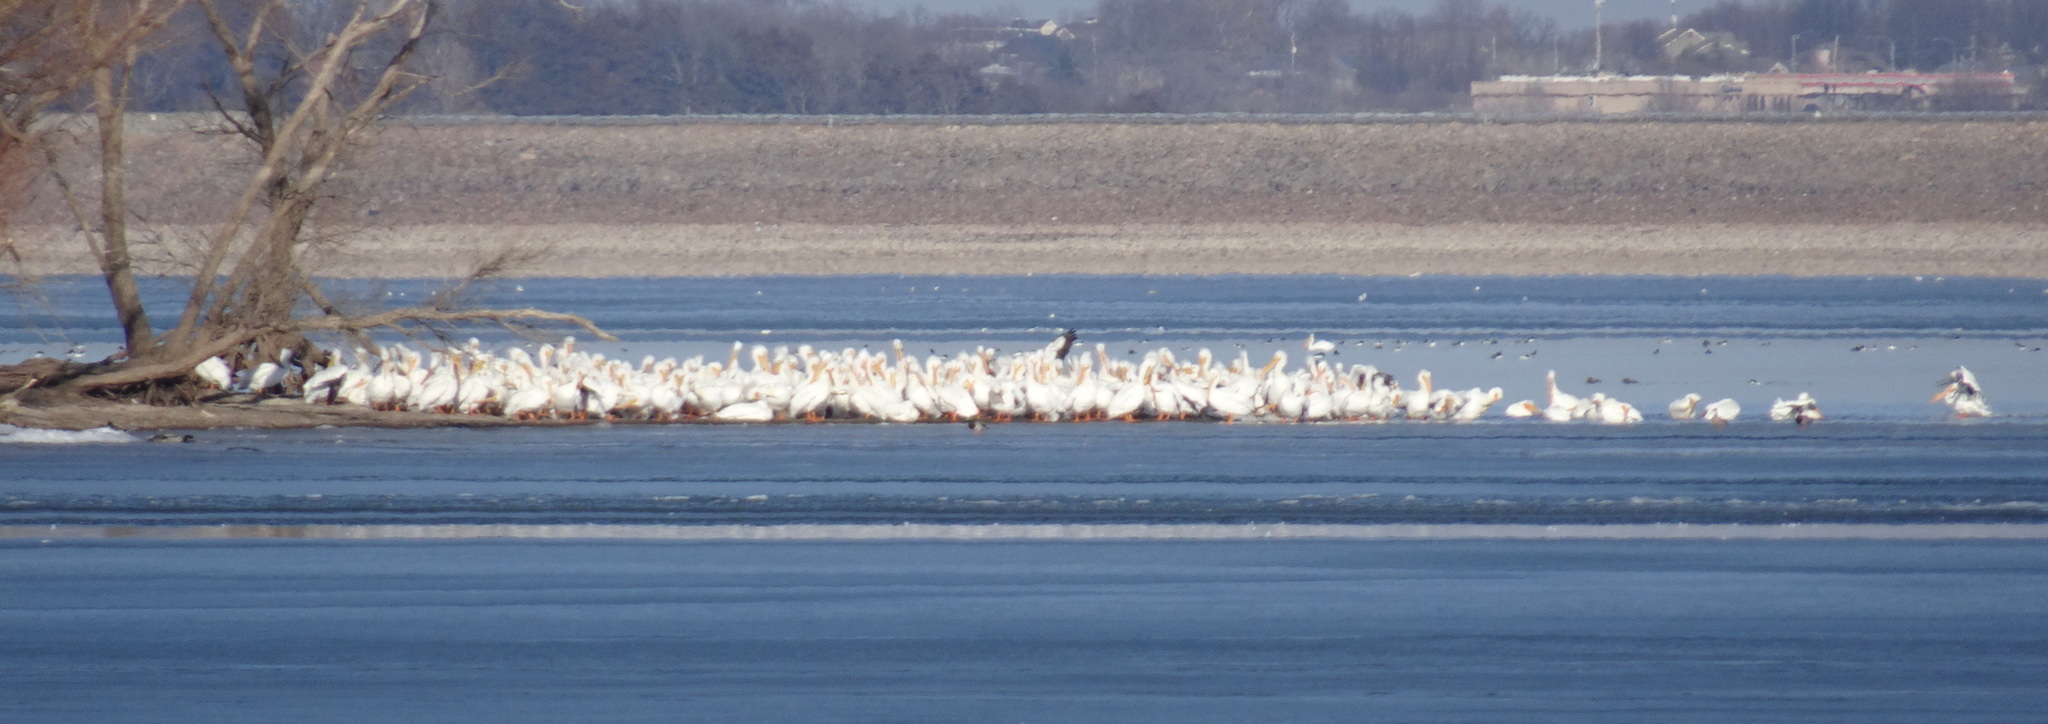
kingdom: Animalia
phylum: Chordata
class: Aves
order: Pelecaniformes
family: Pelecanidae
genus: Pelecanus
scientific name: Pelecanus erythrorhynchos
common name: American white pelican
